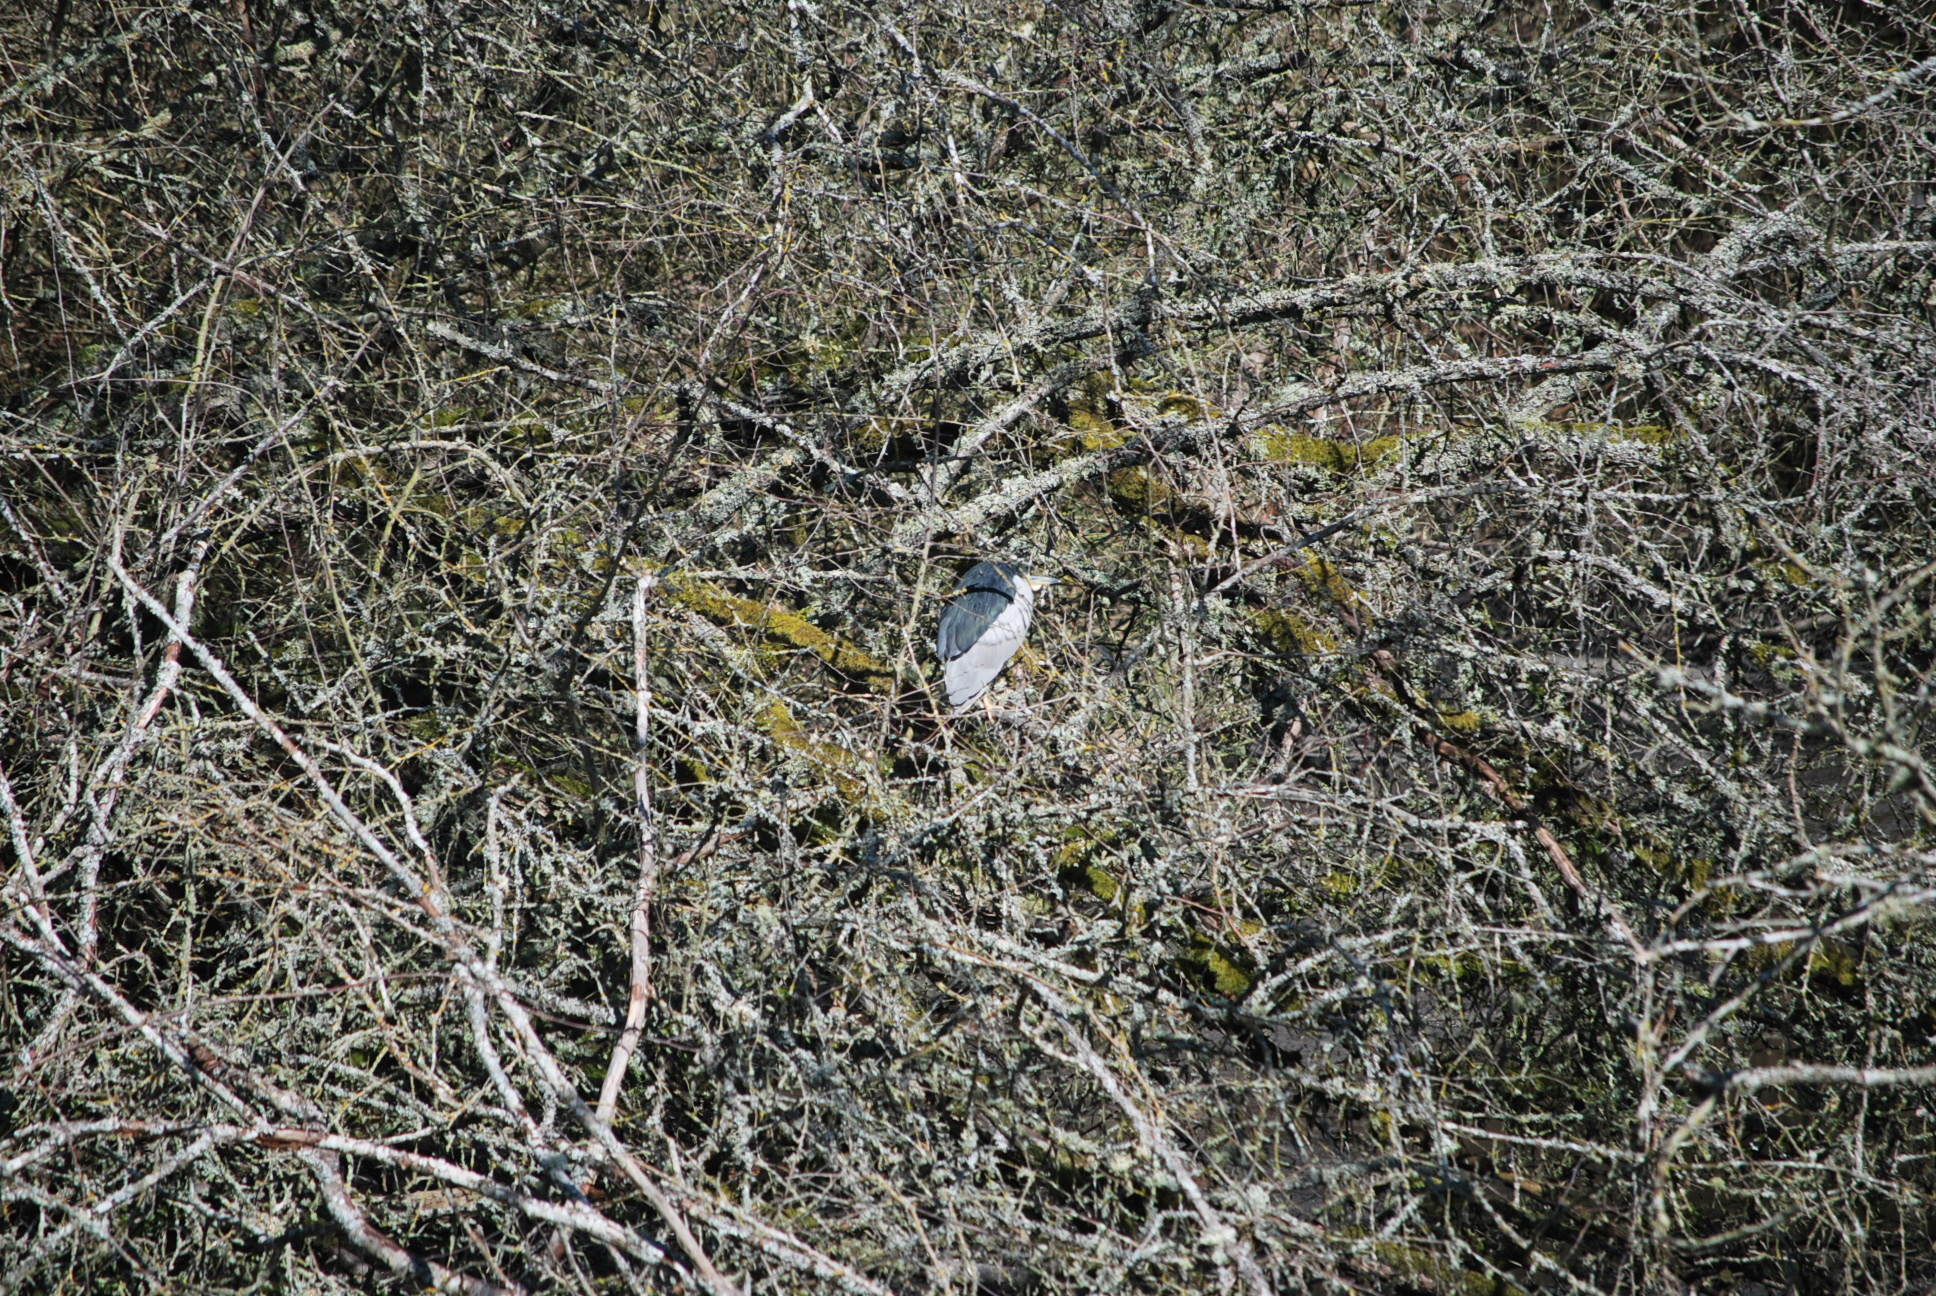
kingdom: Animalia
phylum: Chordata
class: Aves
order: Pelecaniformes
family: Ardeidae
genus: Nycticorax
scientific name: Nycticorax nycticorax
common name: Black-crowned night heron
